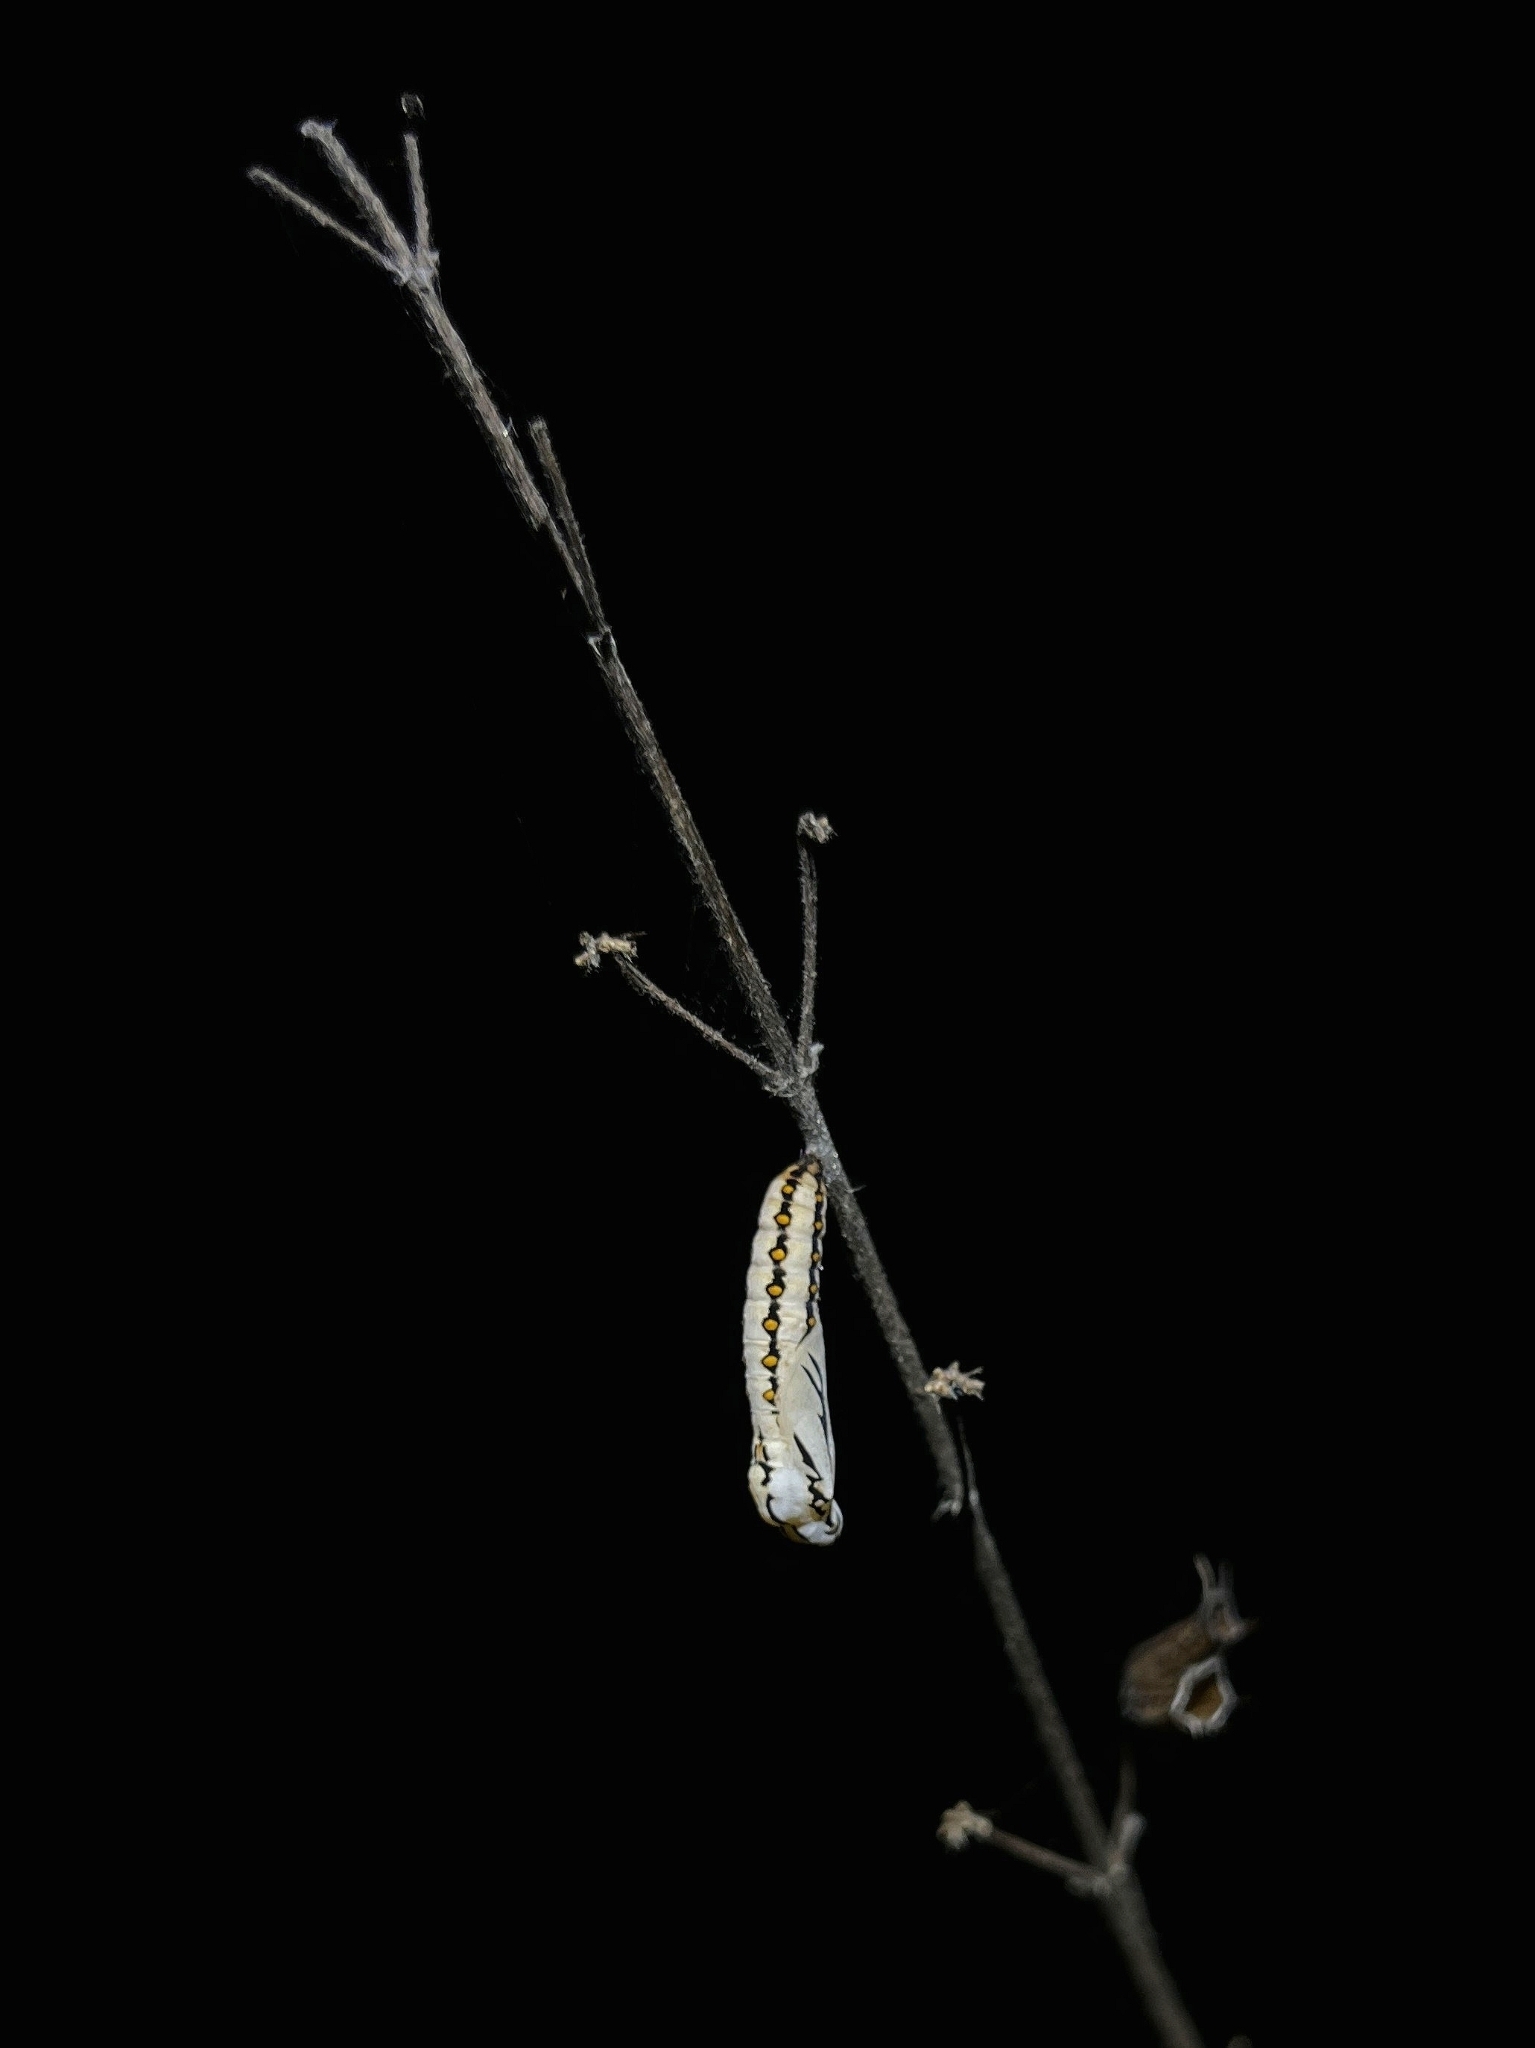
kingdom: Animalia
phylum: Arthropoda
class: Insecta
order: Lepidoptera
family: Nymphalidae
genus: Acraea
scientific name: Acraea terpsicore
